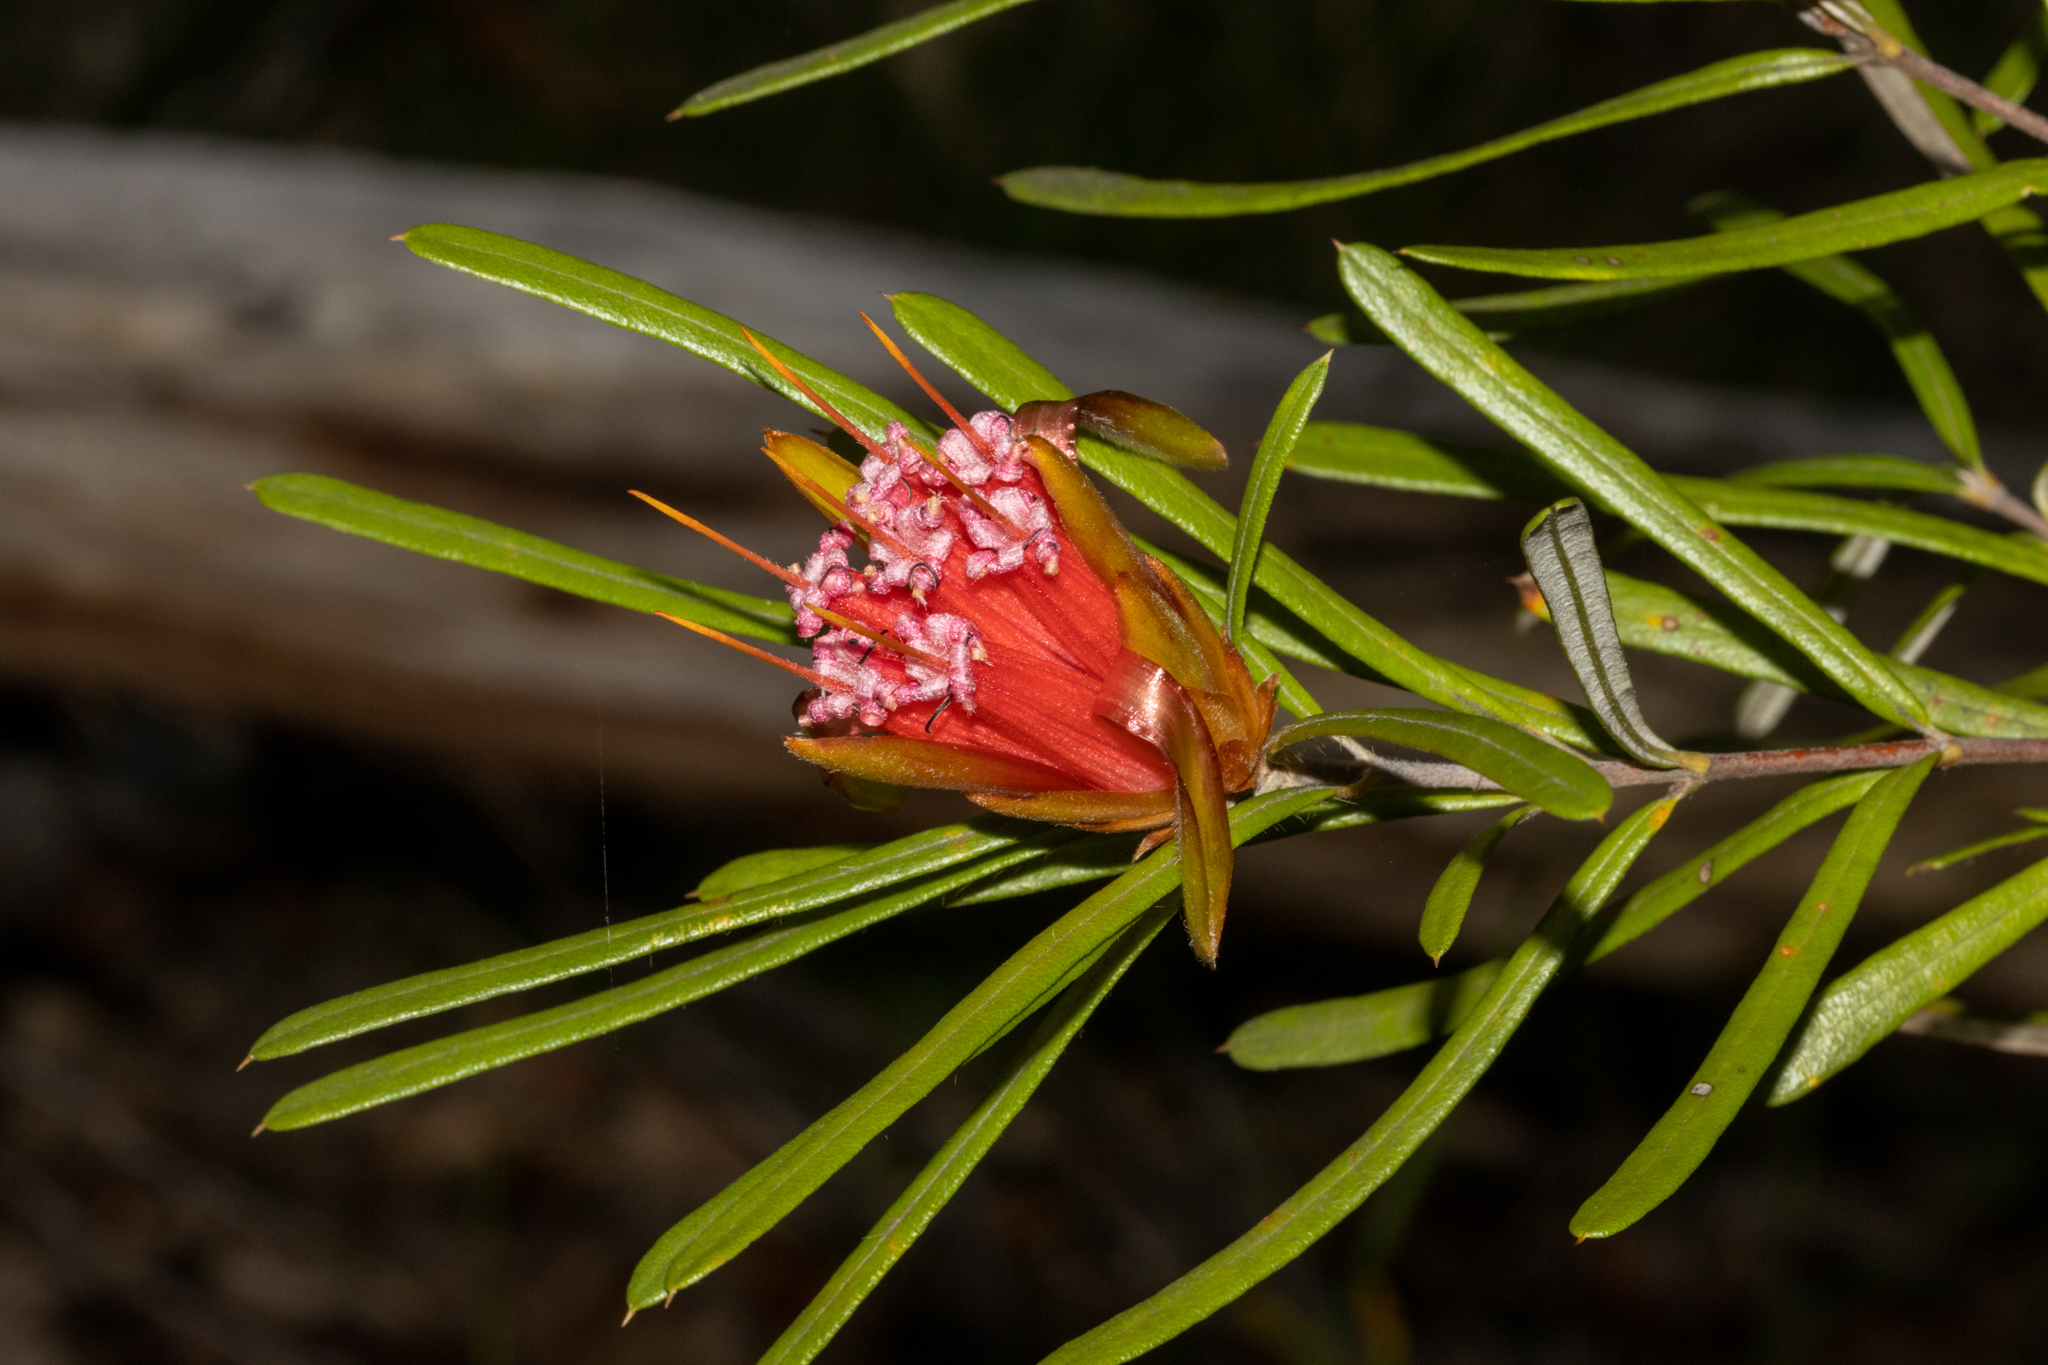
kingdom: Plantae
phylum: Tracheophyta
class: Magnoliopsida
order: Proteales
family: Proteaceae
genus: Lambertia
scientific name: Lambertia formosa
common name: Mountain-devil
